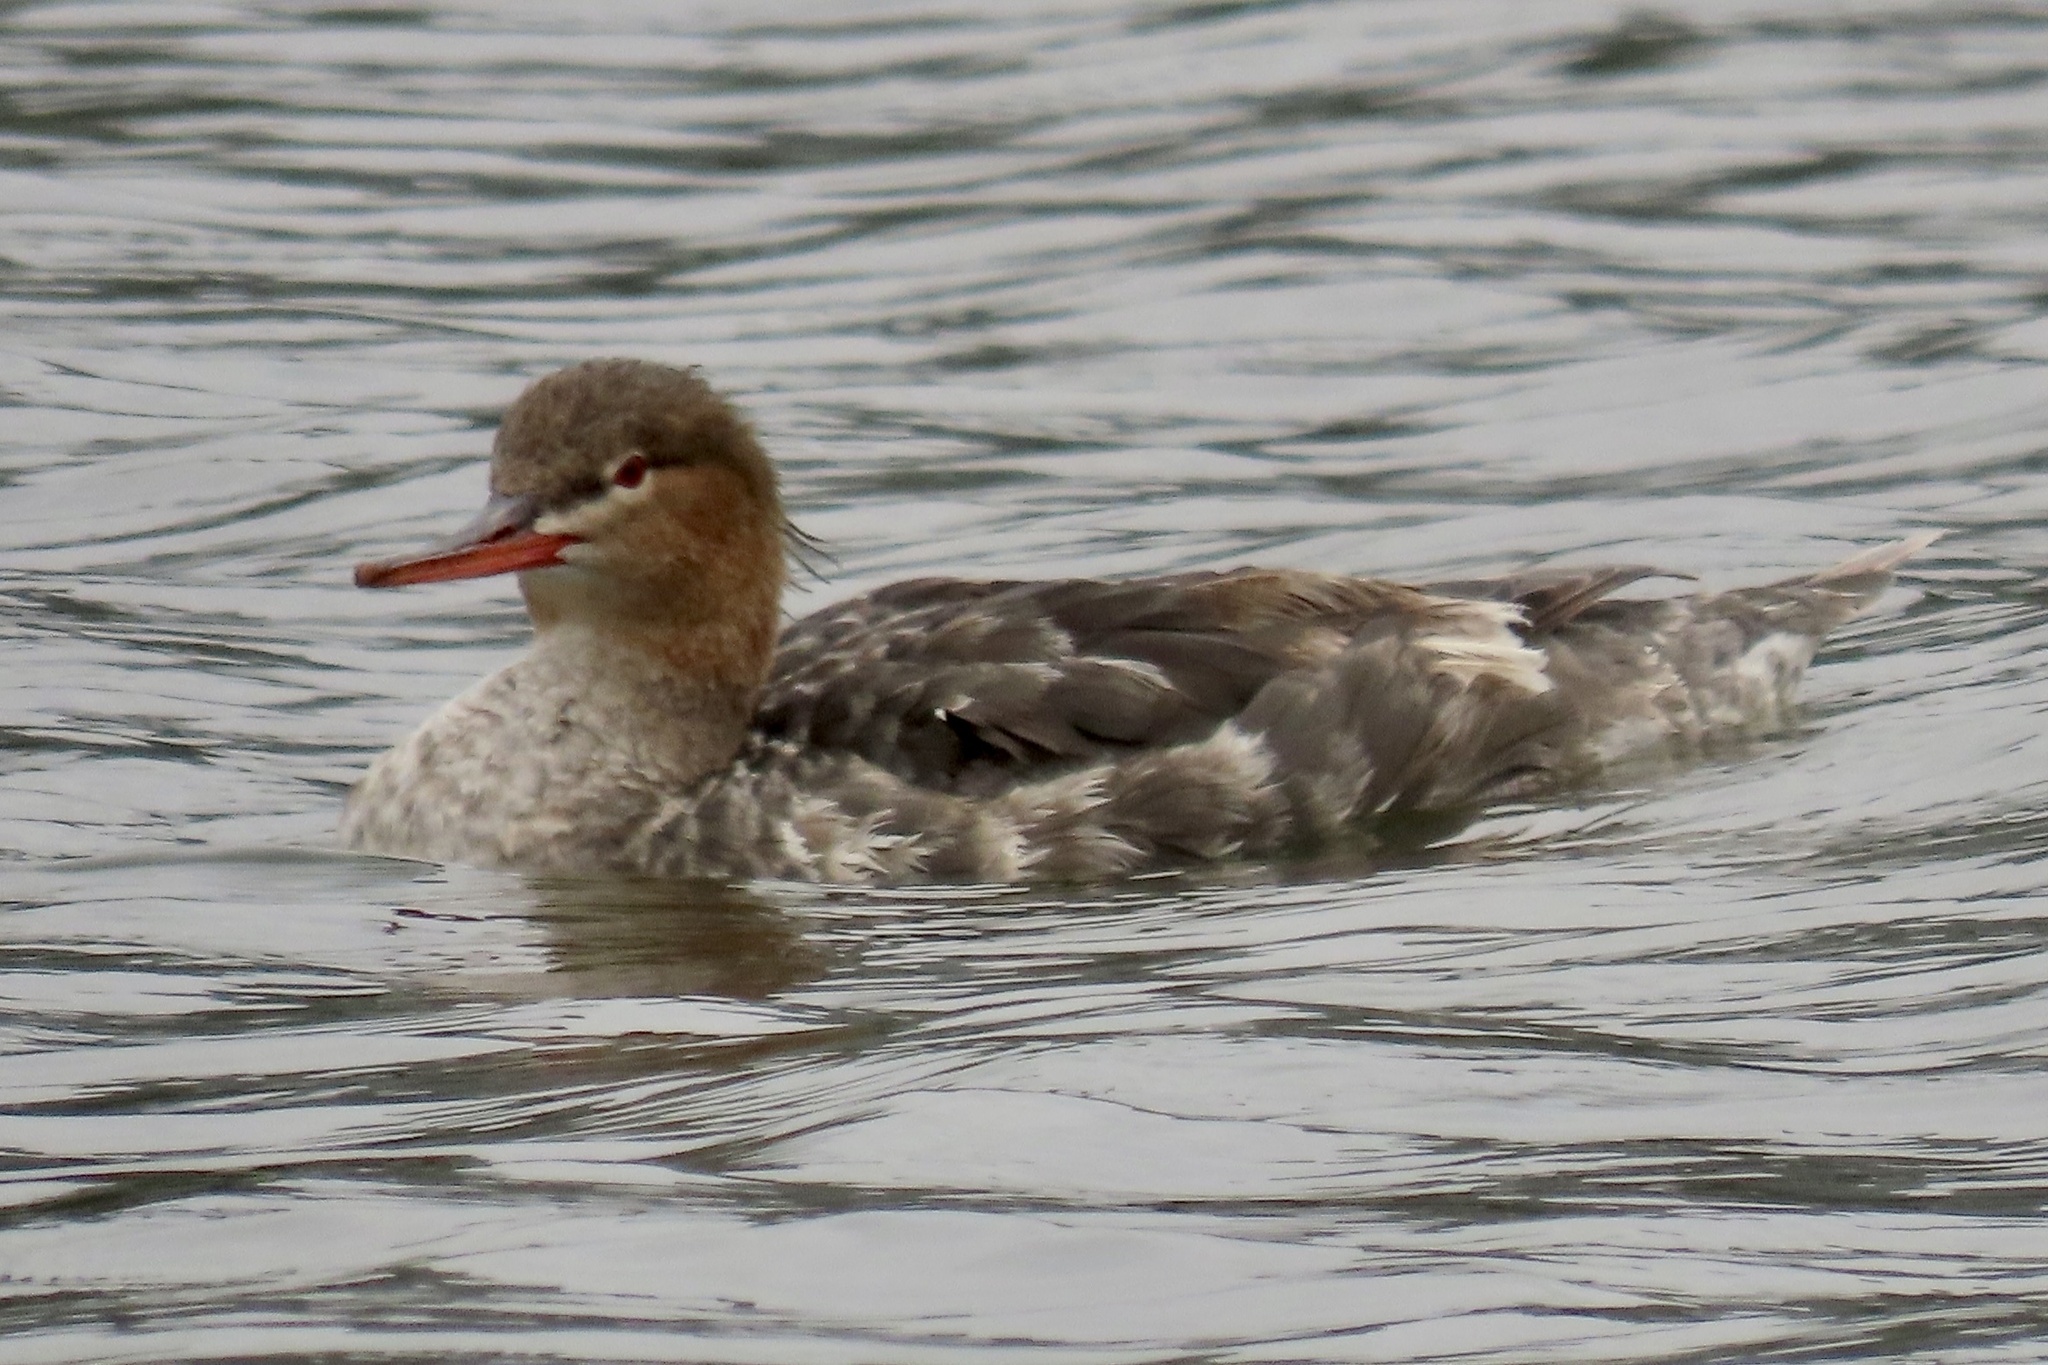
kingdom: Animalia
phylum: Chordata
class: Aves
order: Anseriformes
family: Anatidae
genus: Mergus
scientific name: Mergus serrator
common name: Red-breasted merganser
